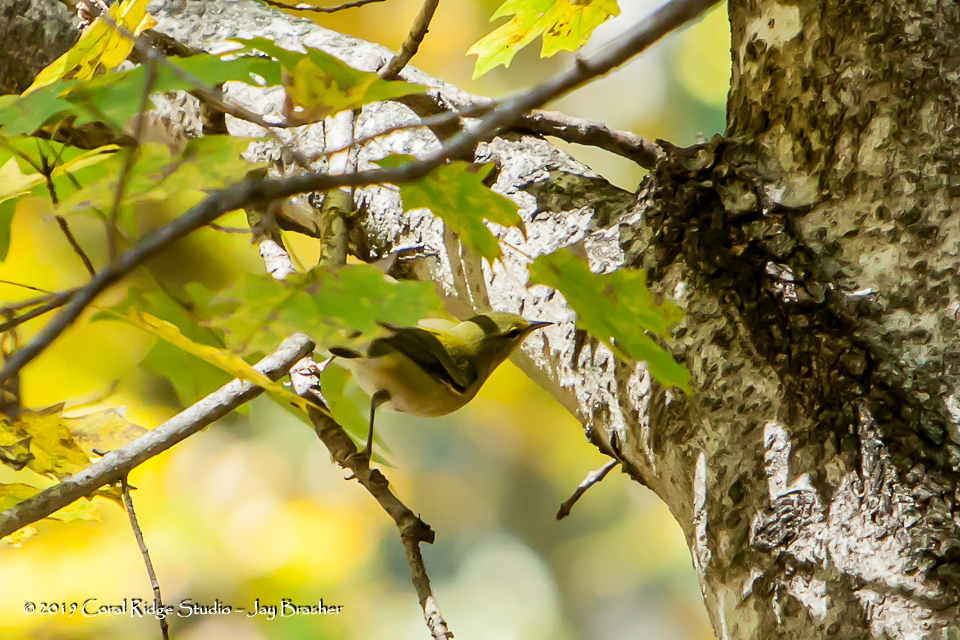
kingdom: Animalia
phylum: Chordata
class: Aves
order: Passeriformes
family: Parulidae
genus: Leiothlypis
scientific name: Leiothlypis peregrina
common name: Tennessee warbler
